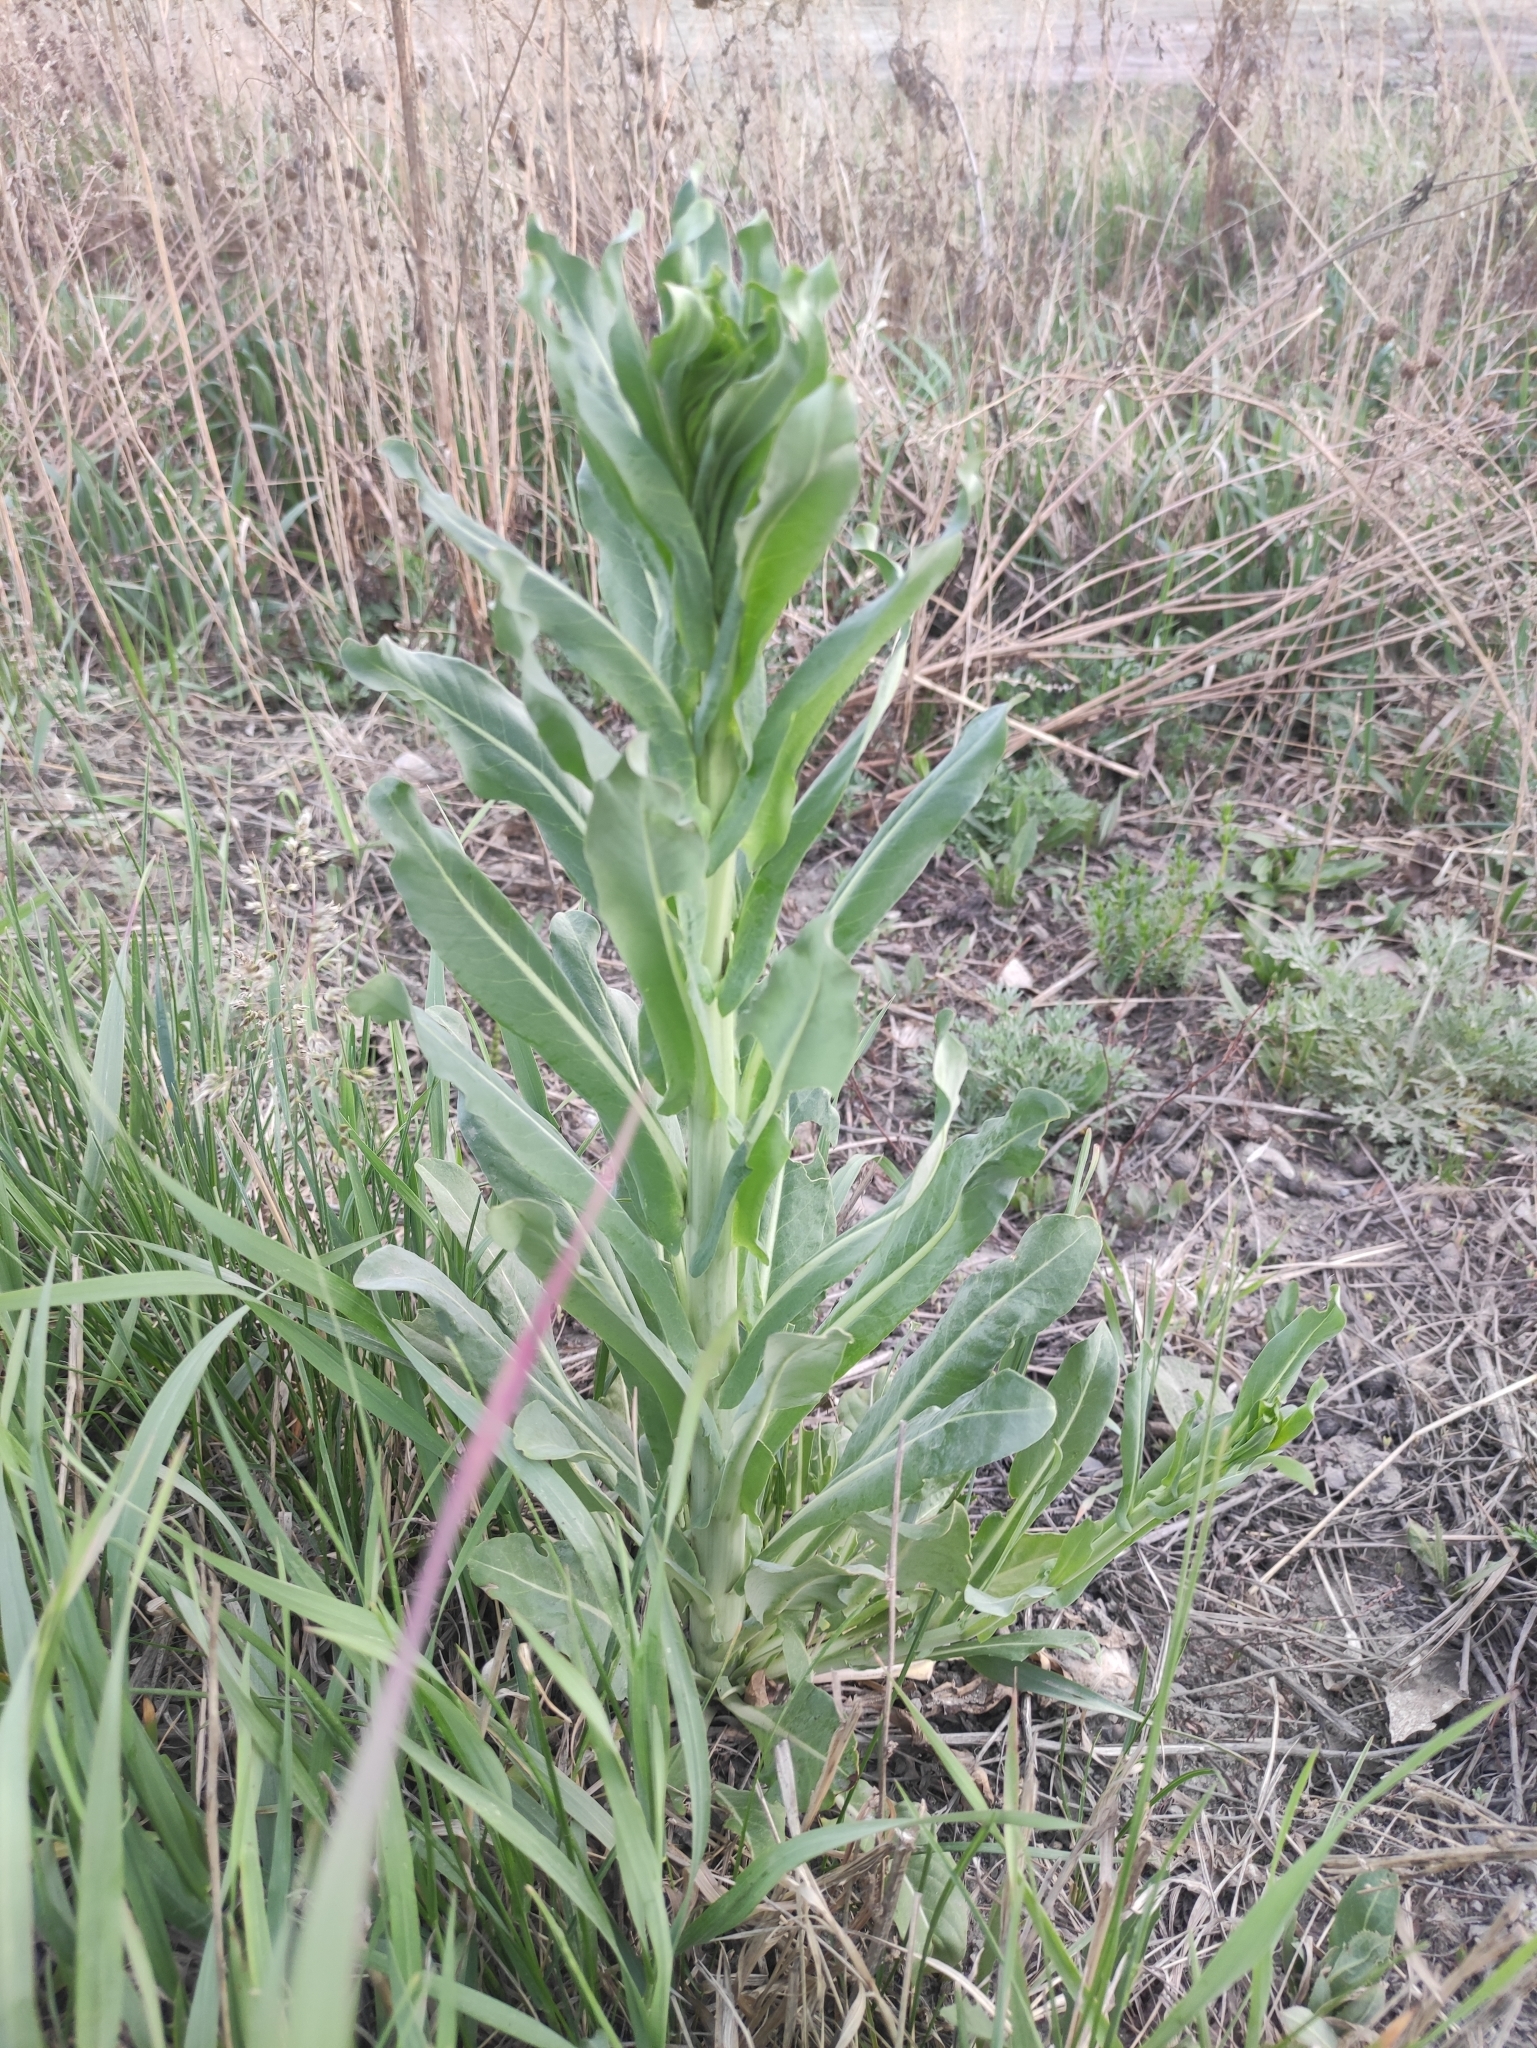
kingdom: Plantae
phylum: Tracheophyta
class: Magnoliopsida
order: Brassicales
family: Brassicaceae
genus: Isatis
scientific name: Isatis tinctoria
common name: Woad
